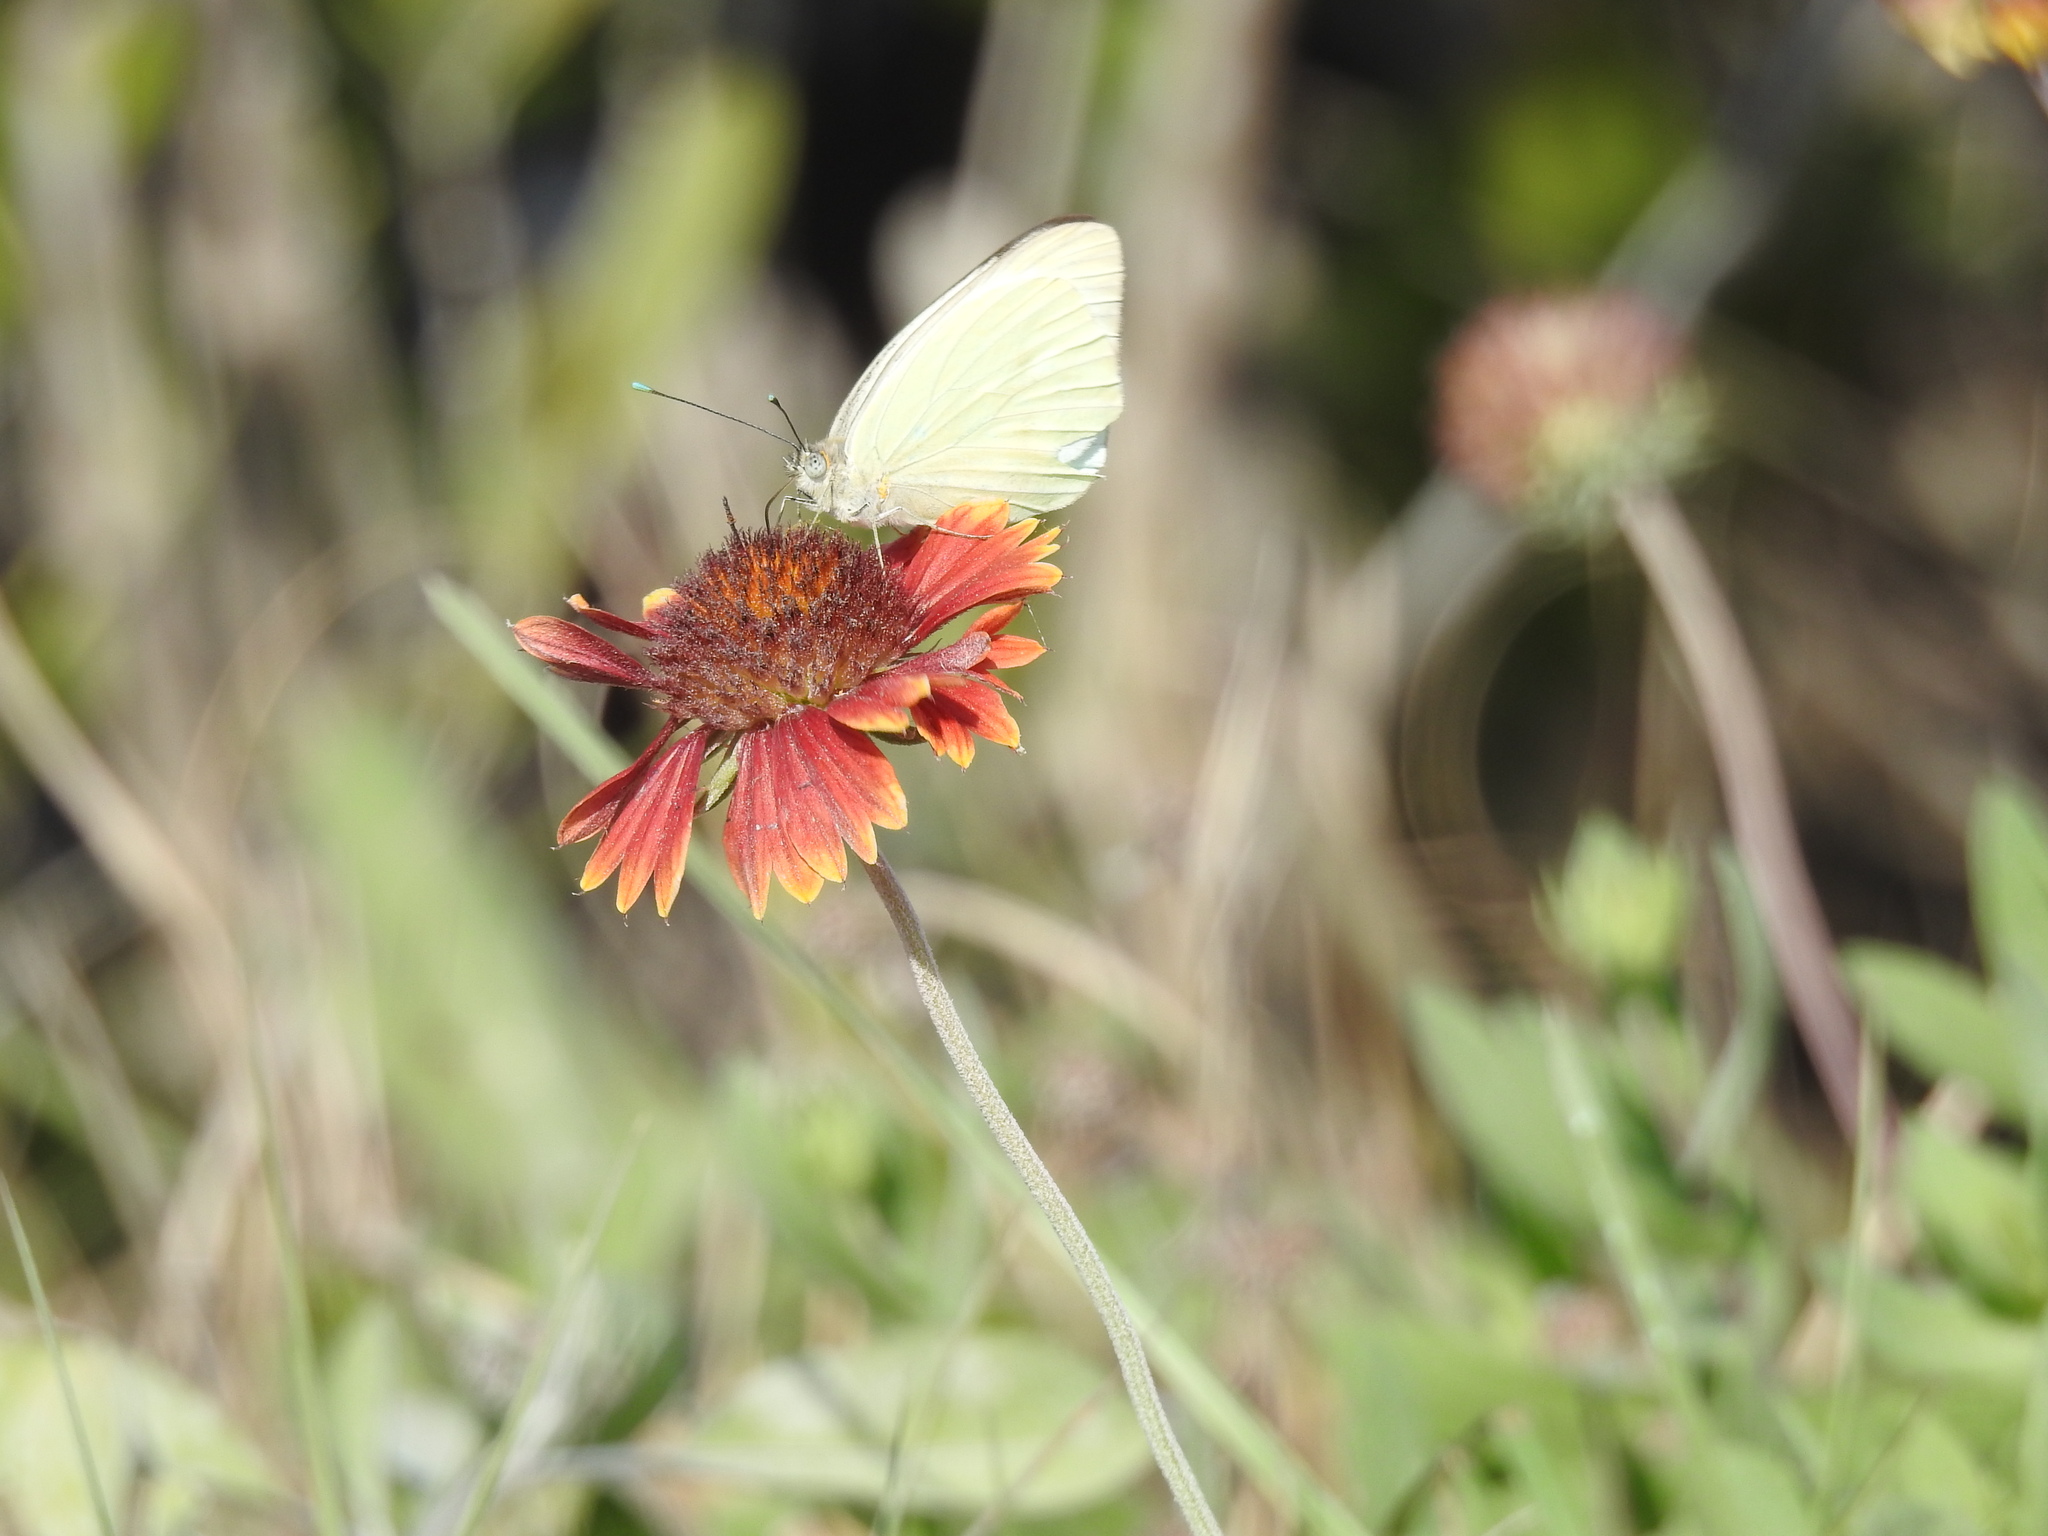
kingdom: Animalia
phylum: Arthropoda
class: Insecta
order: Lepidoptera
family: Pieridae
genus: Ascia
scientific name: Ascia monuste
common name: Great southern white
